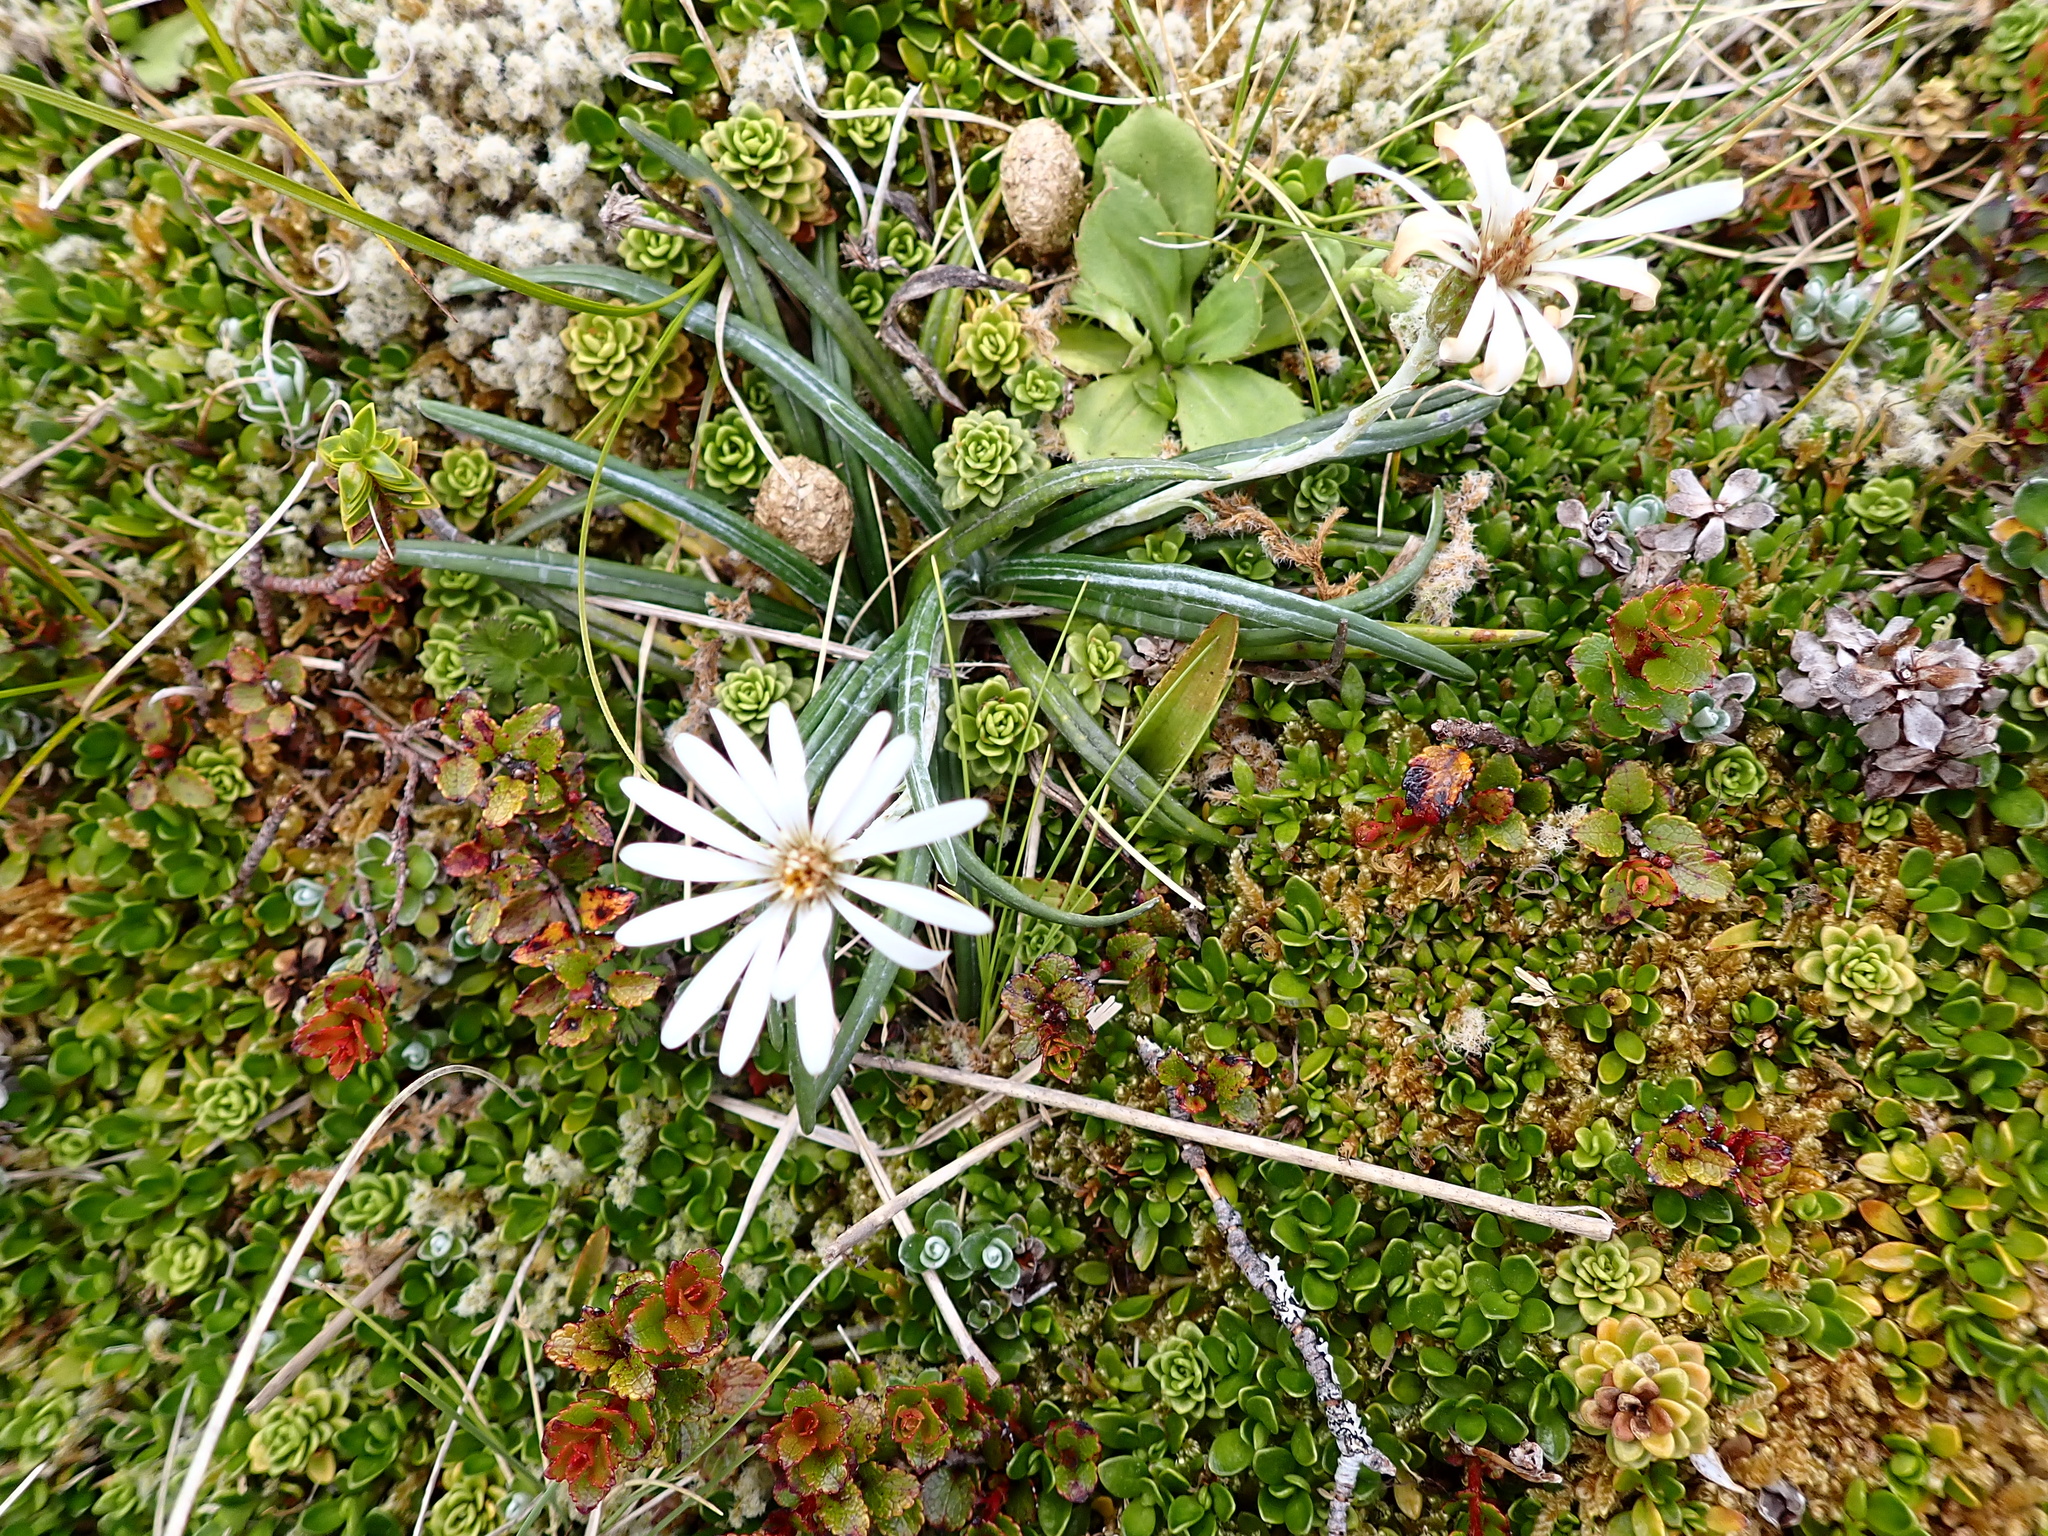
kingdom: Plantae
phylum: Tracheophyta
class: Magnoliopsida
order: Asterales
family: Asteraceae
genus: Celmisia
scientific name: Celmisia major
